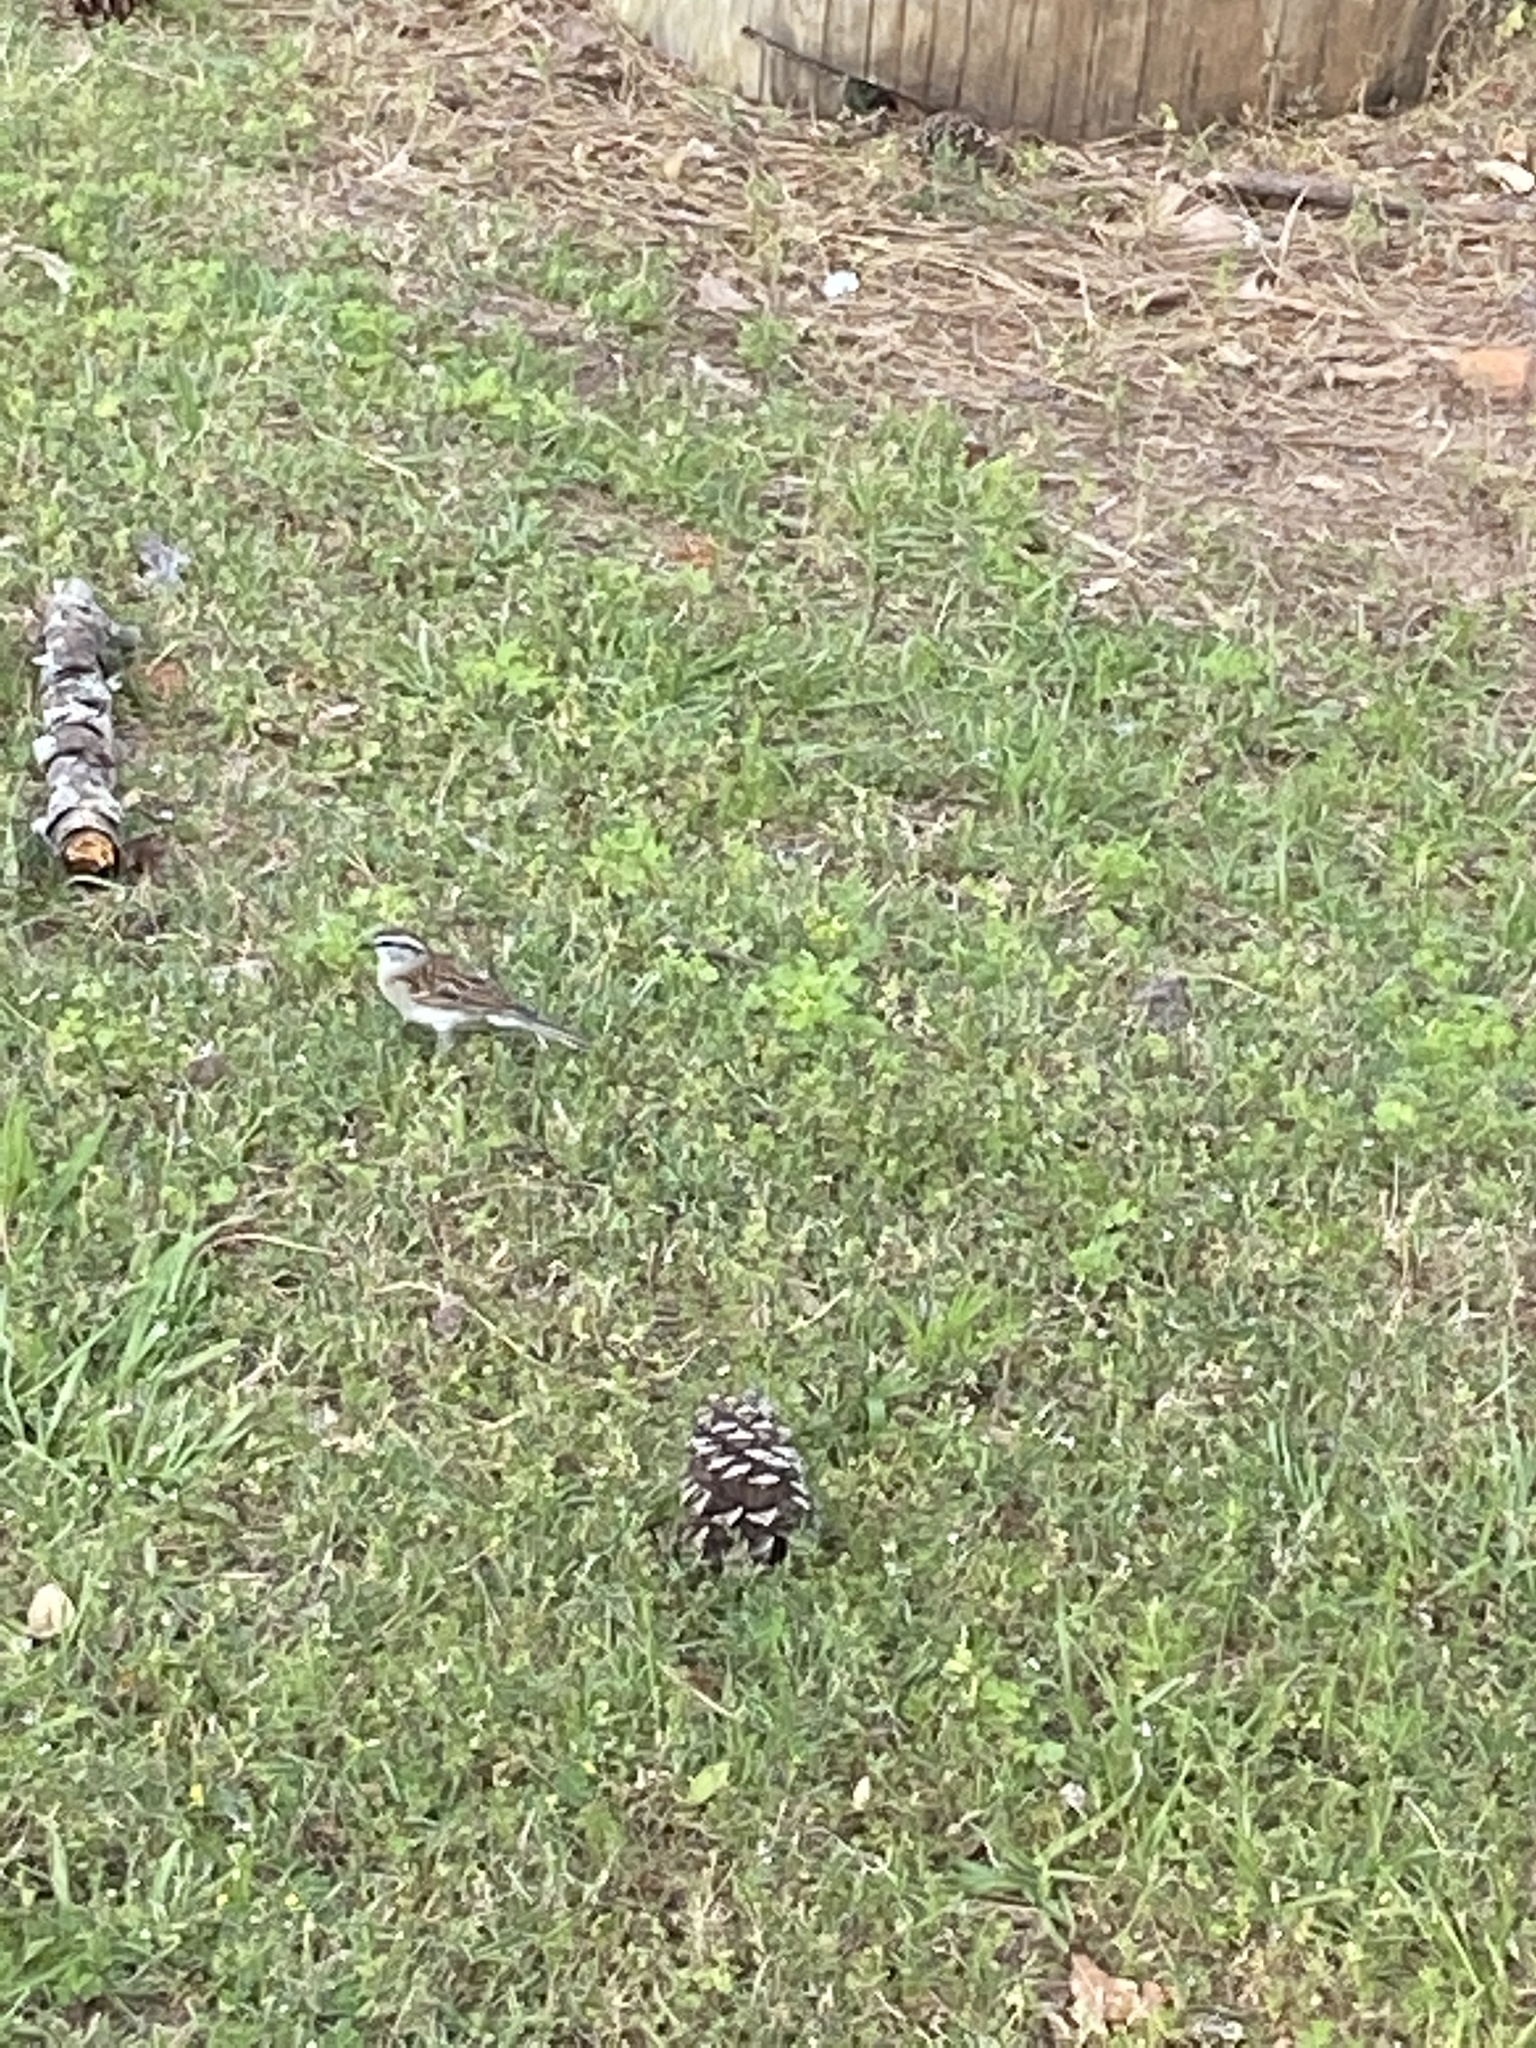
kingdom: Animalia
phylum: Chordata
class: Aves
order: Passeriformes
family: Passerellidae
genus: Spizella
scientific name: Spizella passerina
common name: Chipping sparrow
